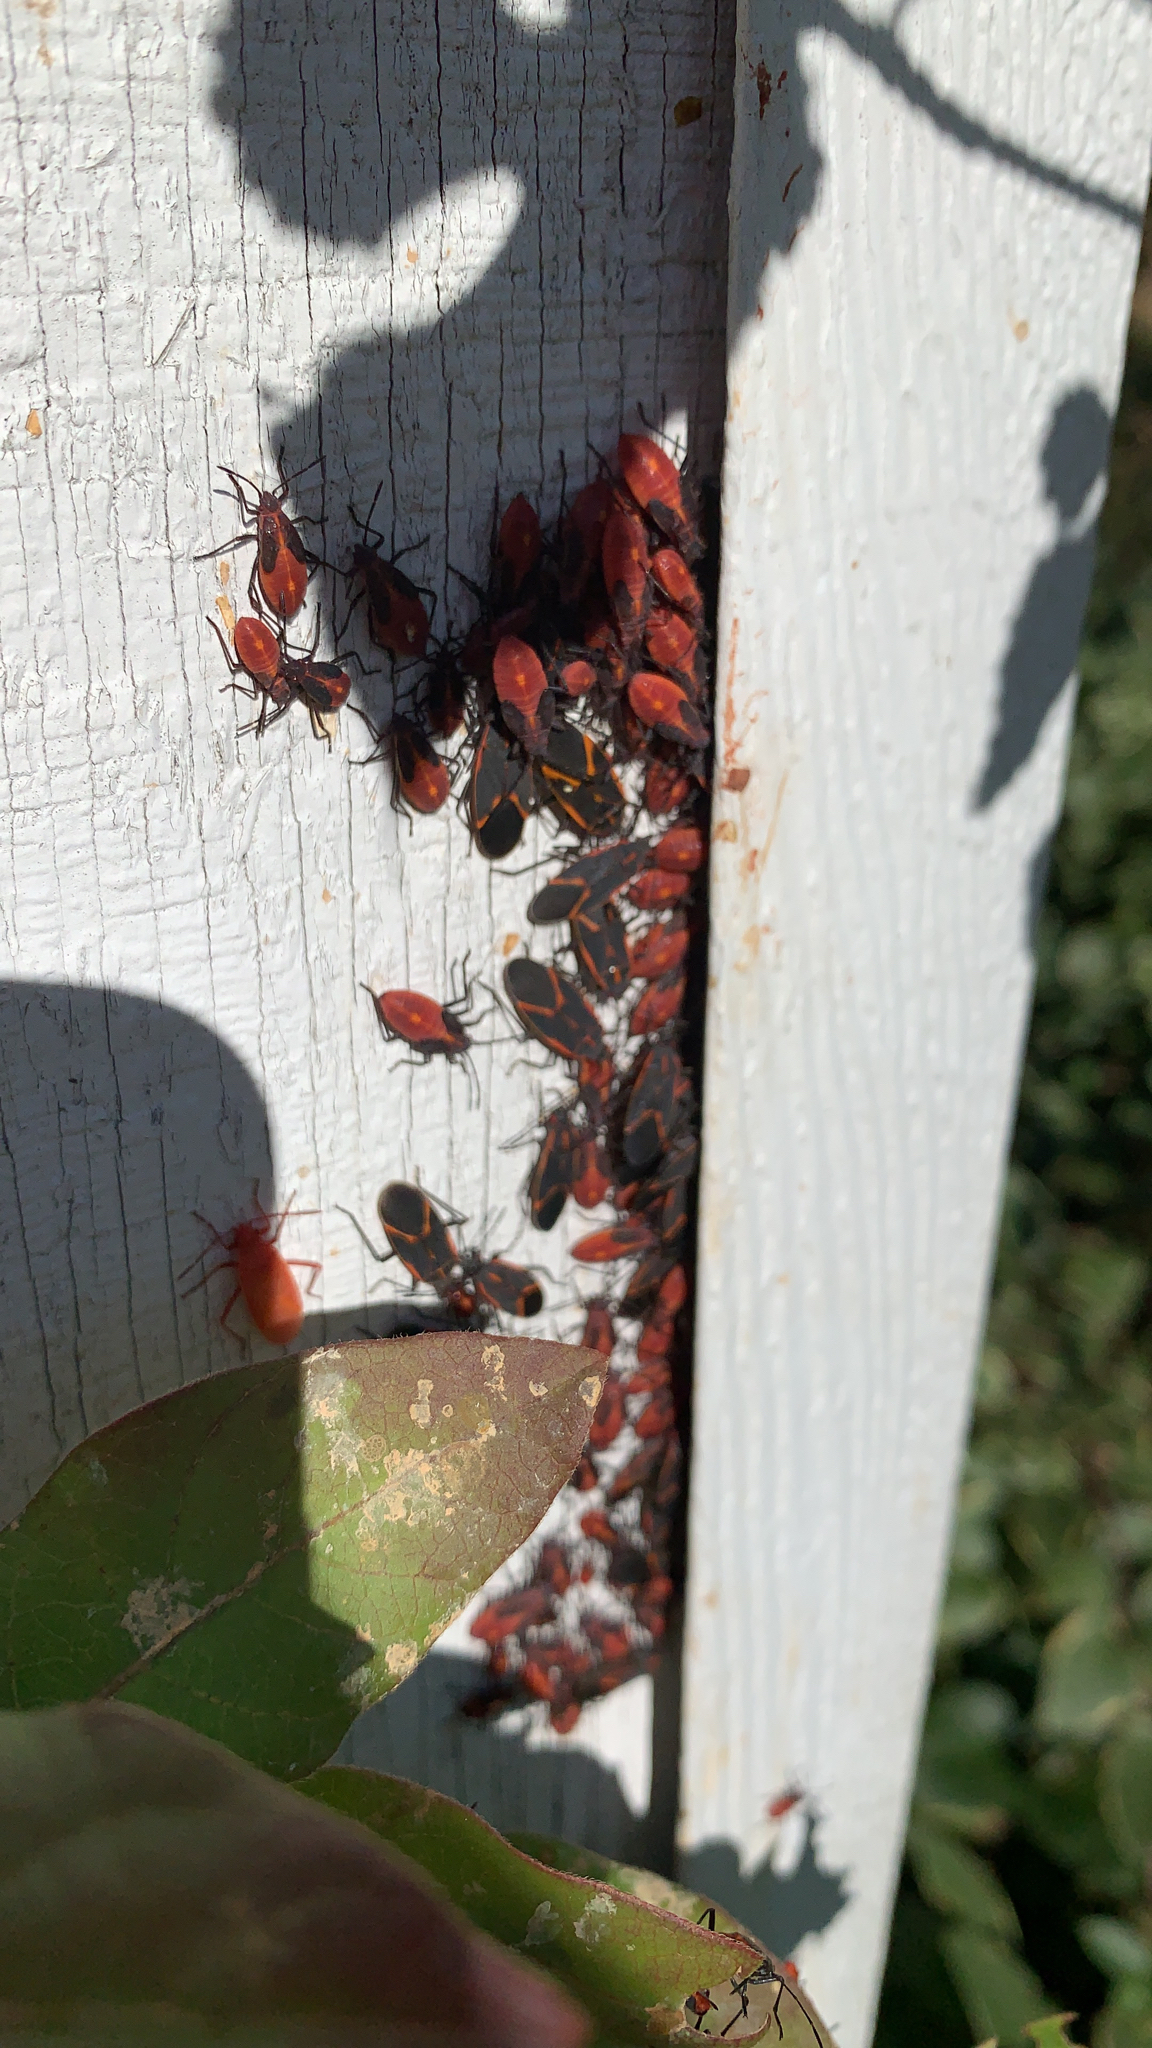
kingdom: Animalia
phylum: Arthropoda
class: Insecta
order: Hemiptera
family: Rhopalidae
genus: Boisea
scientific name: Boisea trivittata
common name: Boxelder bug
